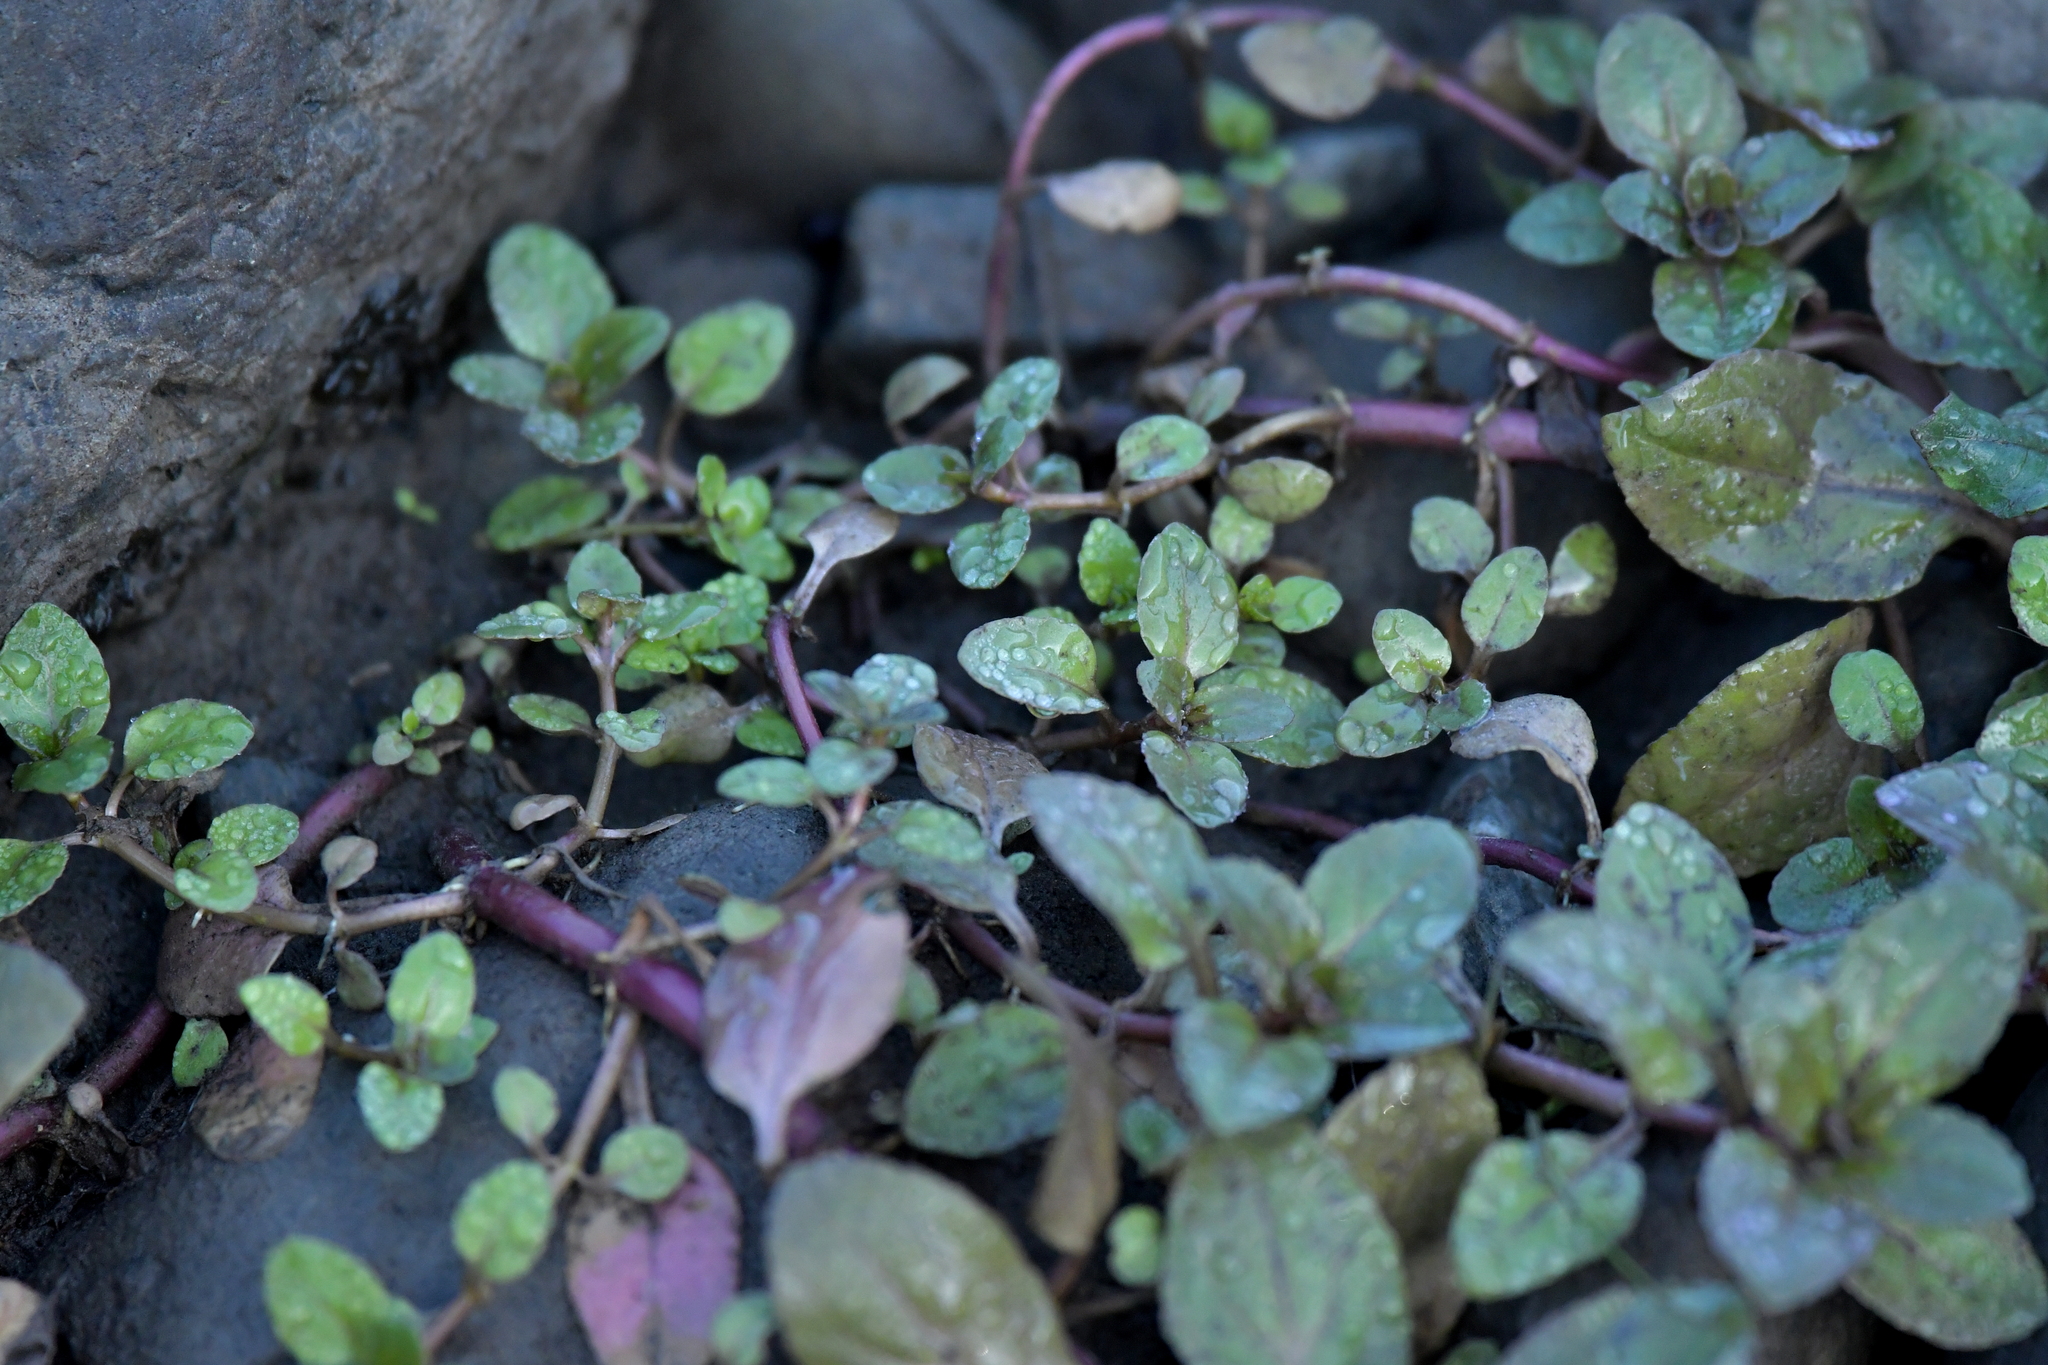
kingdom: Plantae
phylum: Tracheophyta
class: Magnoliopsida
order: Lamiales
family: Plantaginaceae
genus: Veronica
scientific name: Veronica americana
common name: American brooklime
